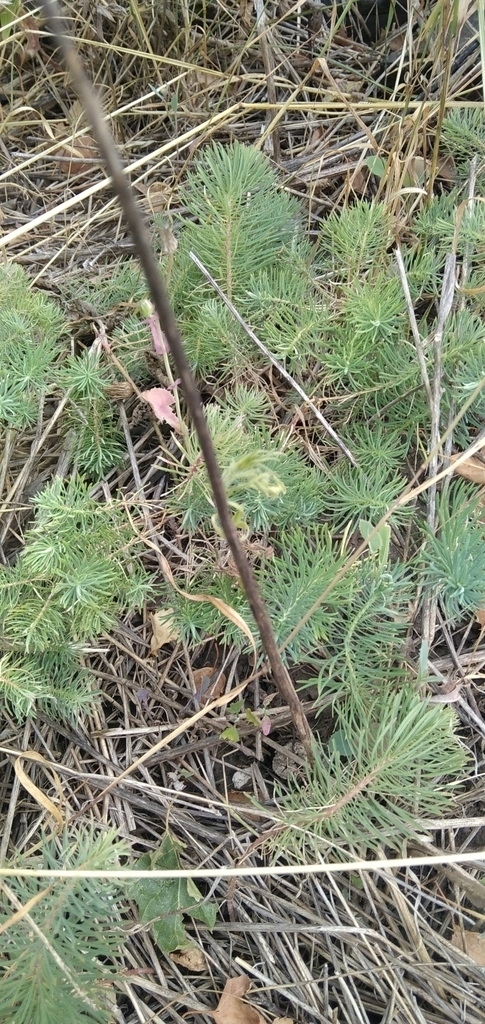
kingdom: Plantae
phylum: Tracheophyta
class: Magnoliopsida
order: Malpighiales
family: Euphorbiaceae
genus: Euphorbia
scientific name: Euphorbia cyparissias
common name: Cypress spurge
